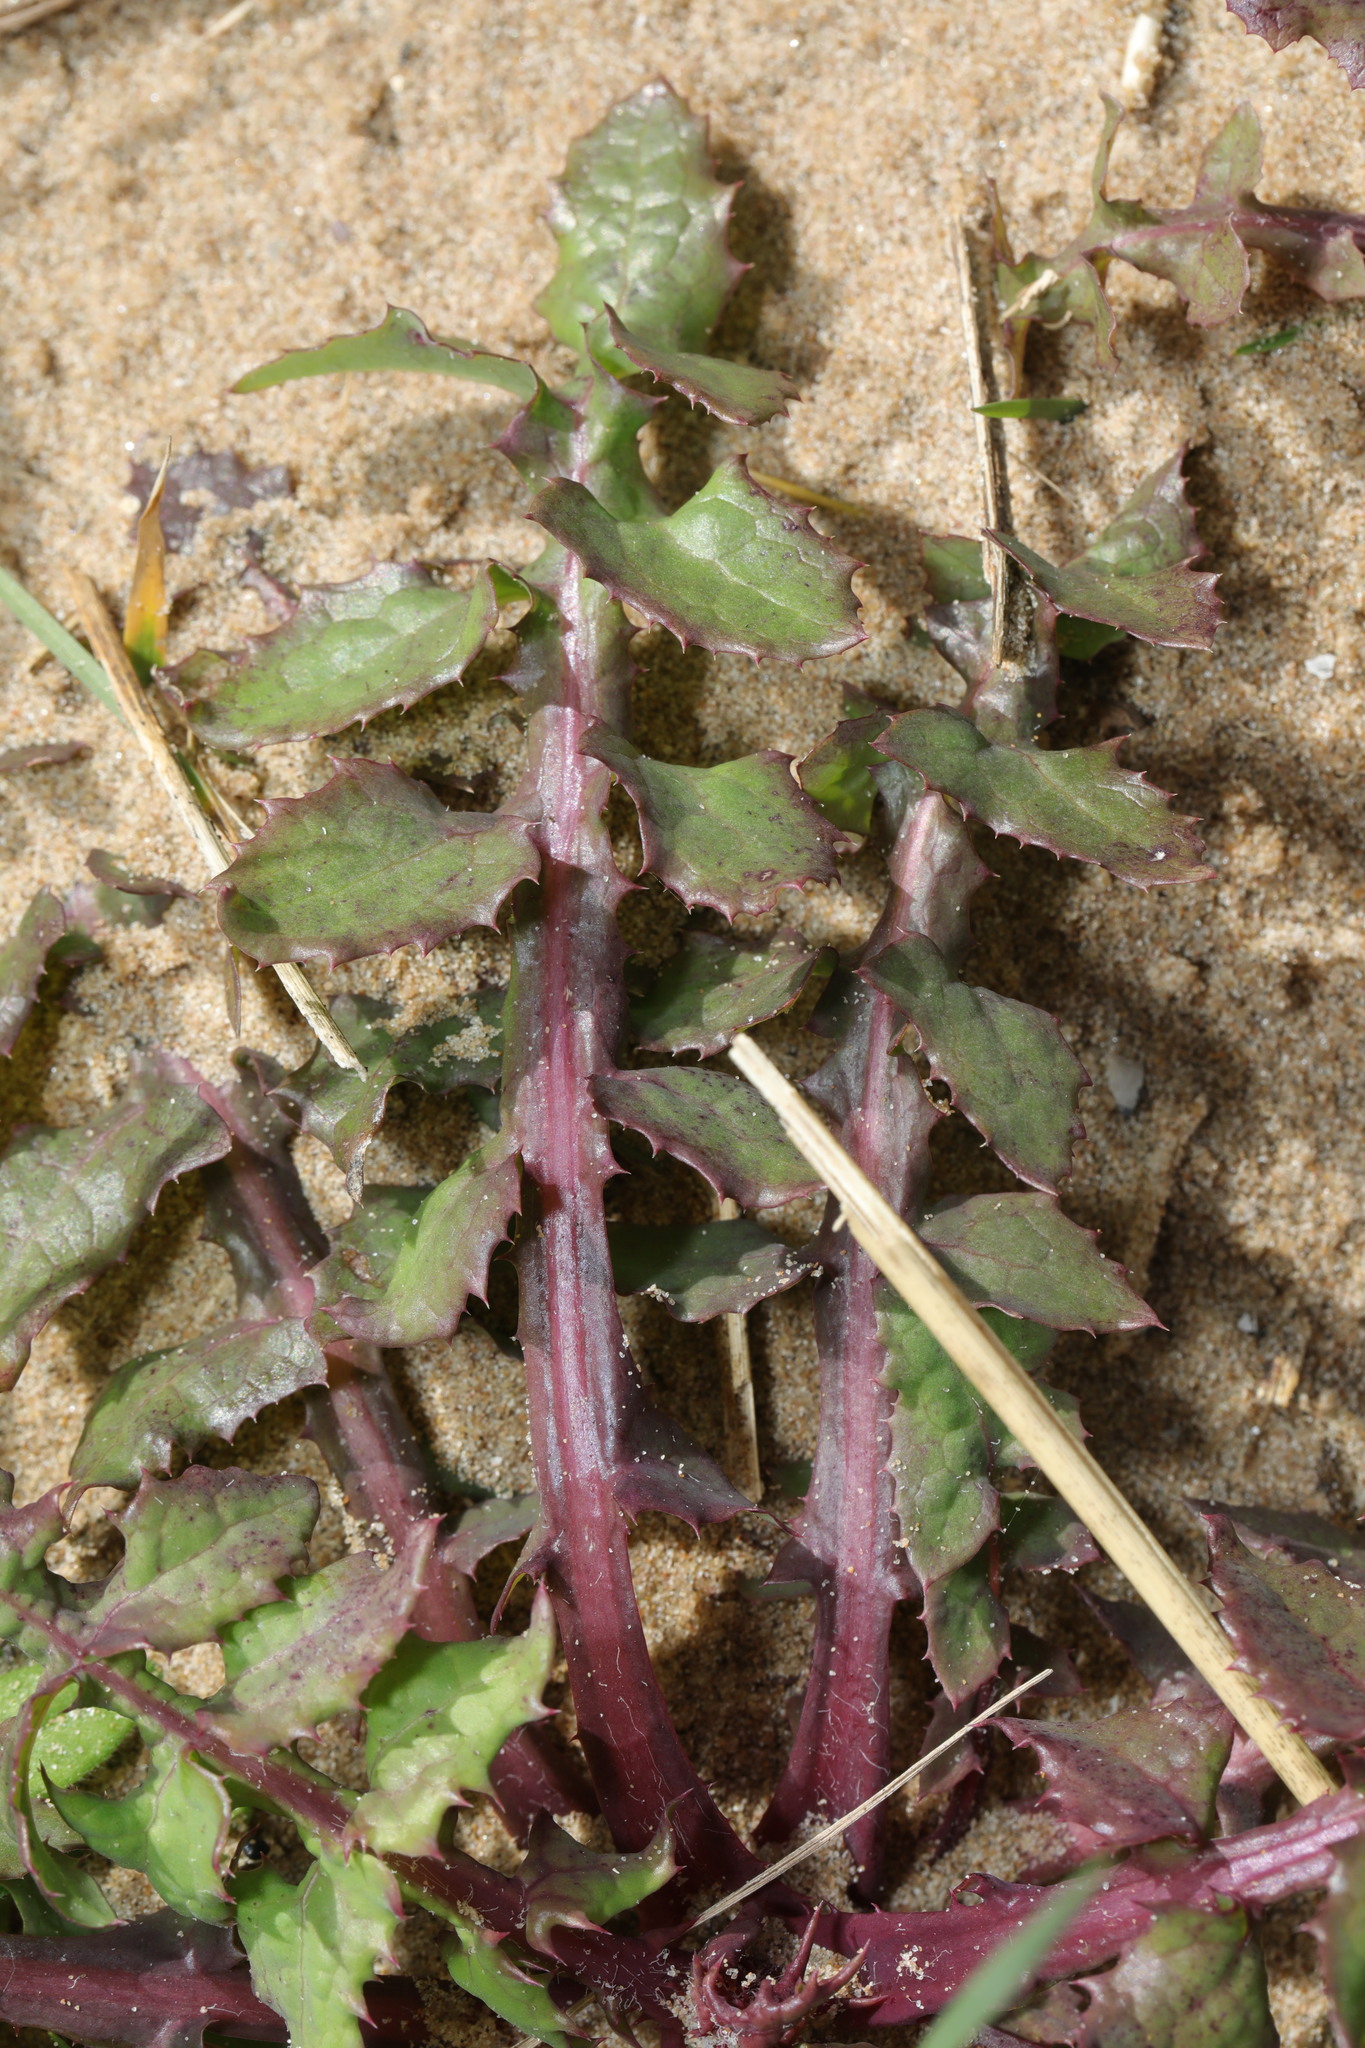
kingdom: Plantae
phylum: Tracheophyta
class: Magnoliopsida
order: Asterales
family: Asteraceae
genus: Sonchus
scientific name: Sonchus oleraceus
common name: Common sowthistle
